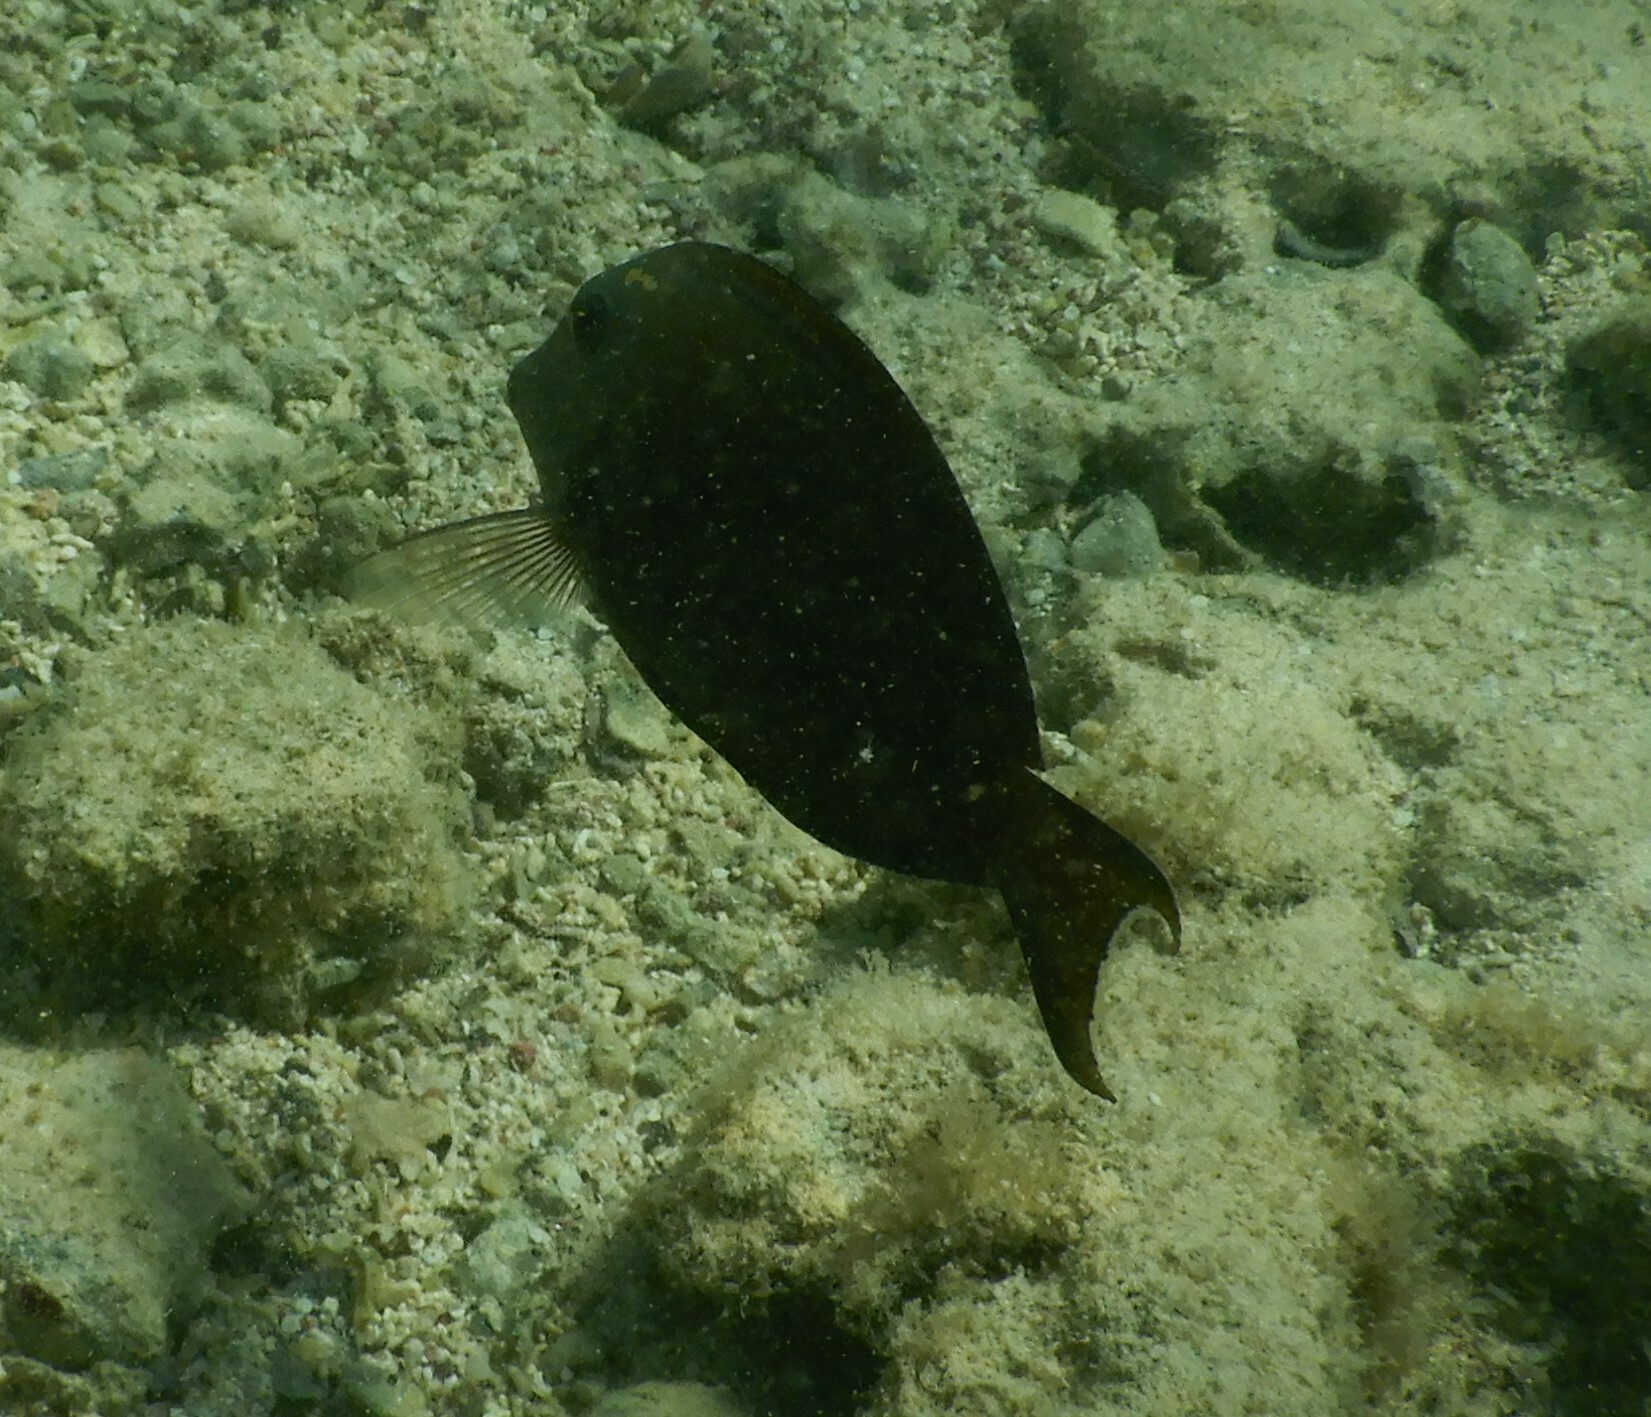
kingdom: Animalia
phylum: Chordata
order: Perciformes
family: Acanthuridae
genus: Acanthurus
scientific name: Acanthurus nigrofuscus
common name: Blackspot surgeonfish
